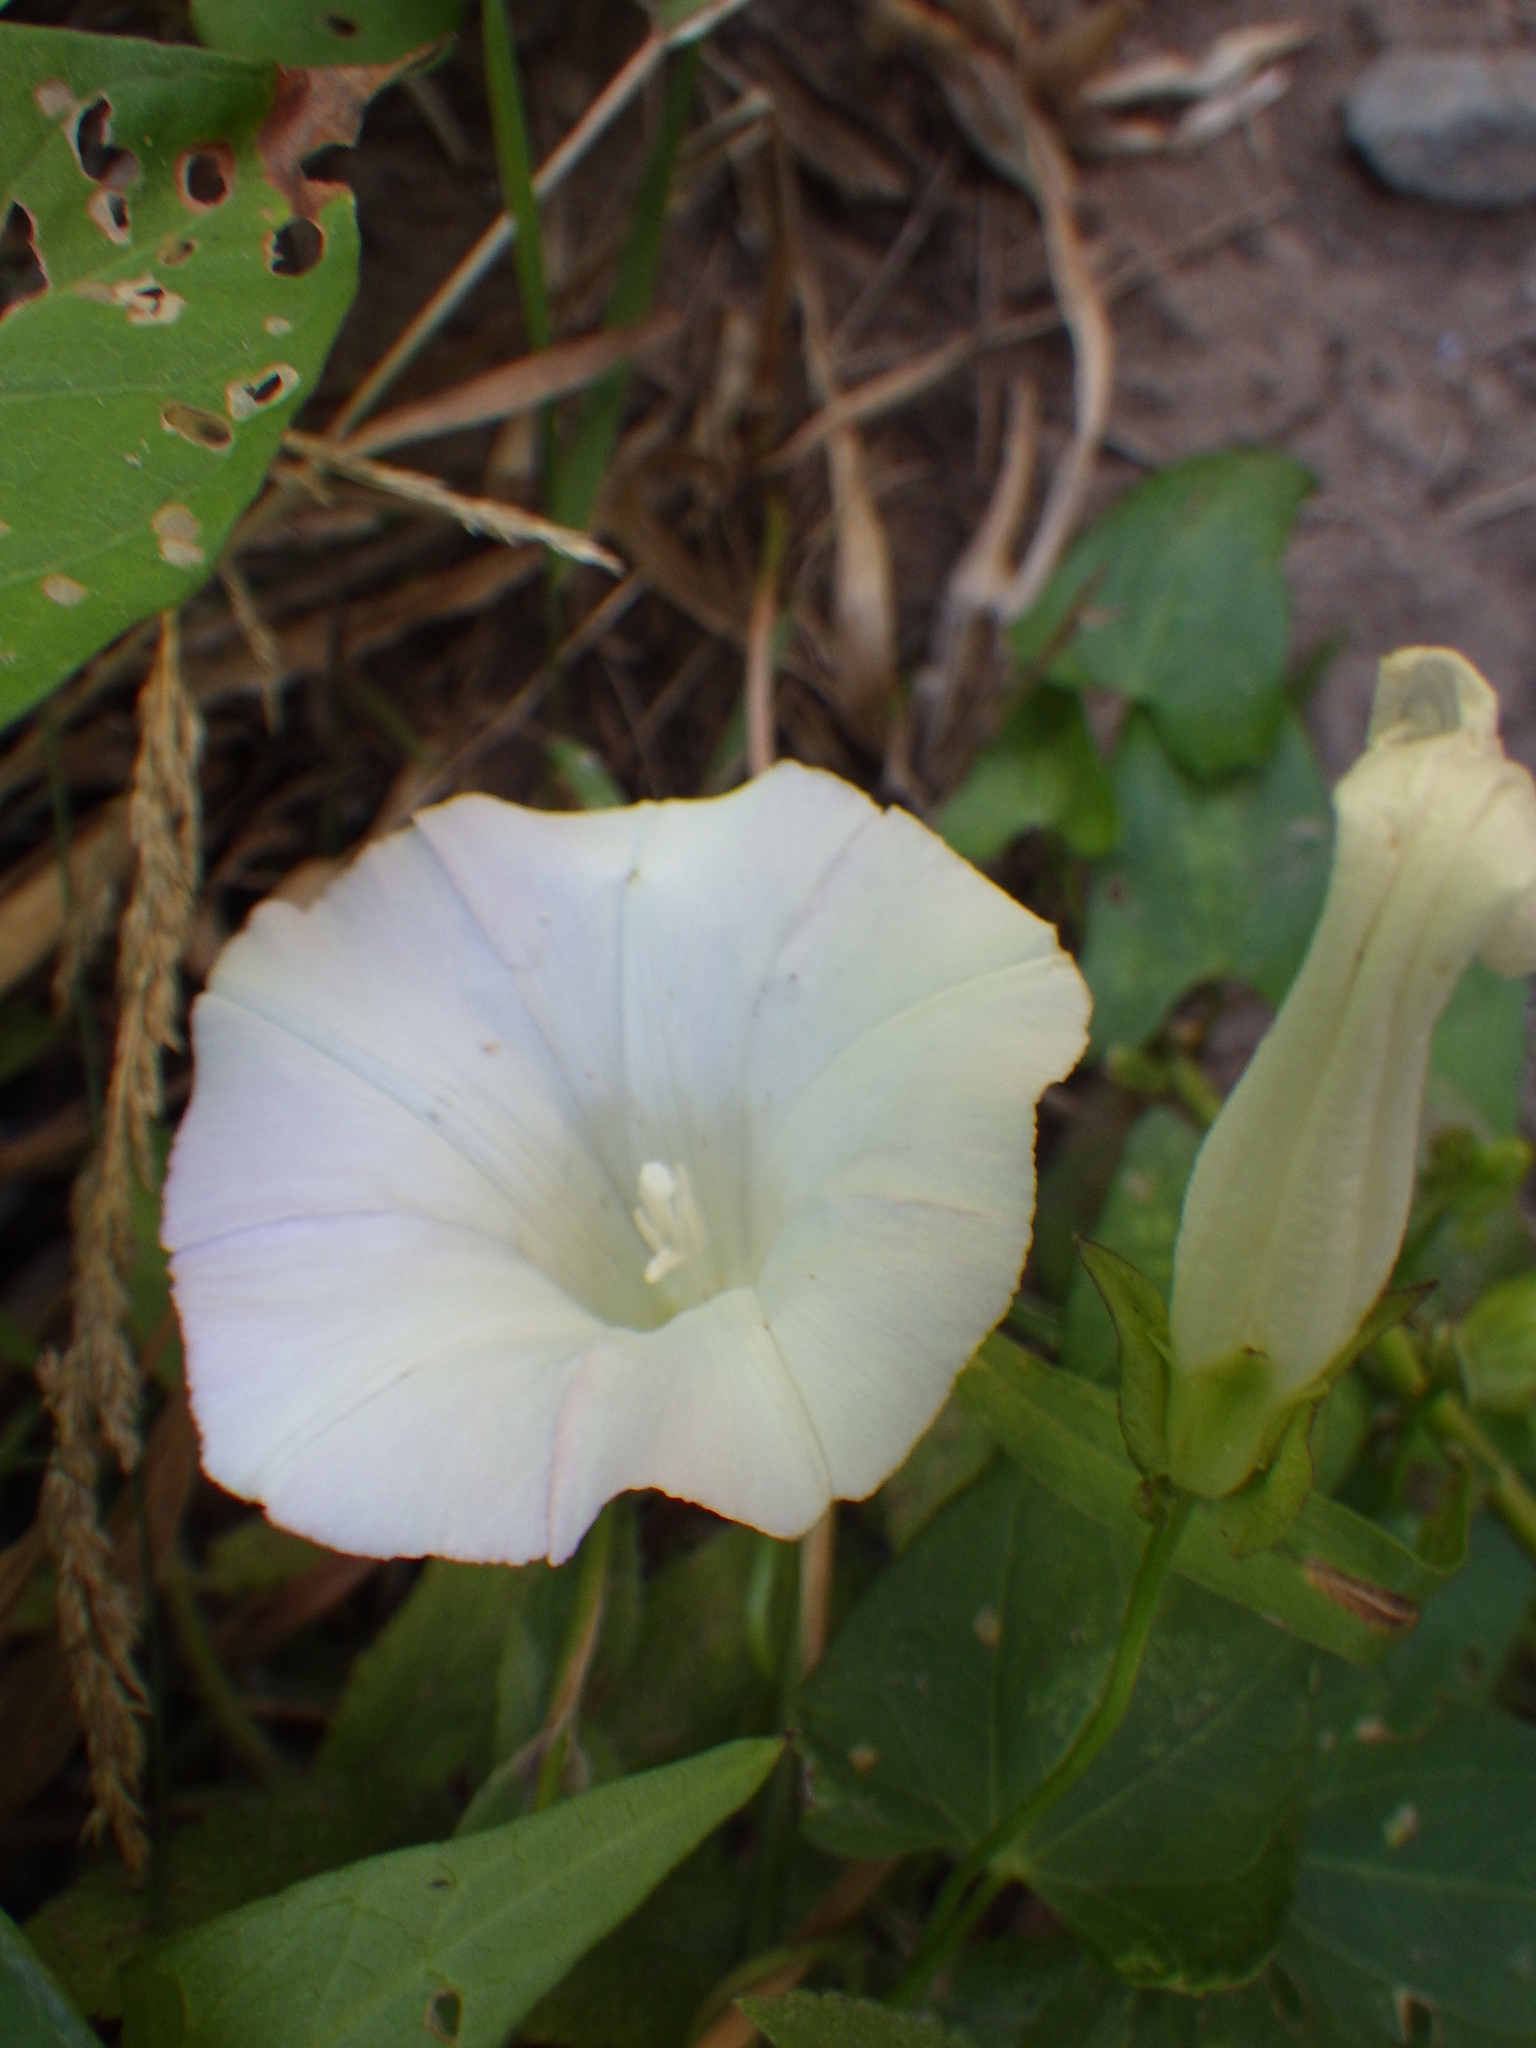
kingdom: Plantae
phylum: Tracheophyta
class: Magnoliopsida
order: Solanales
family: Convolvulaceae
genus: Calystegia
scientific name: Calystegia sepium
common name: Hedge bindweed
